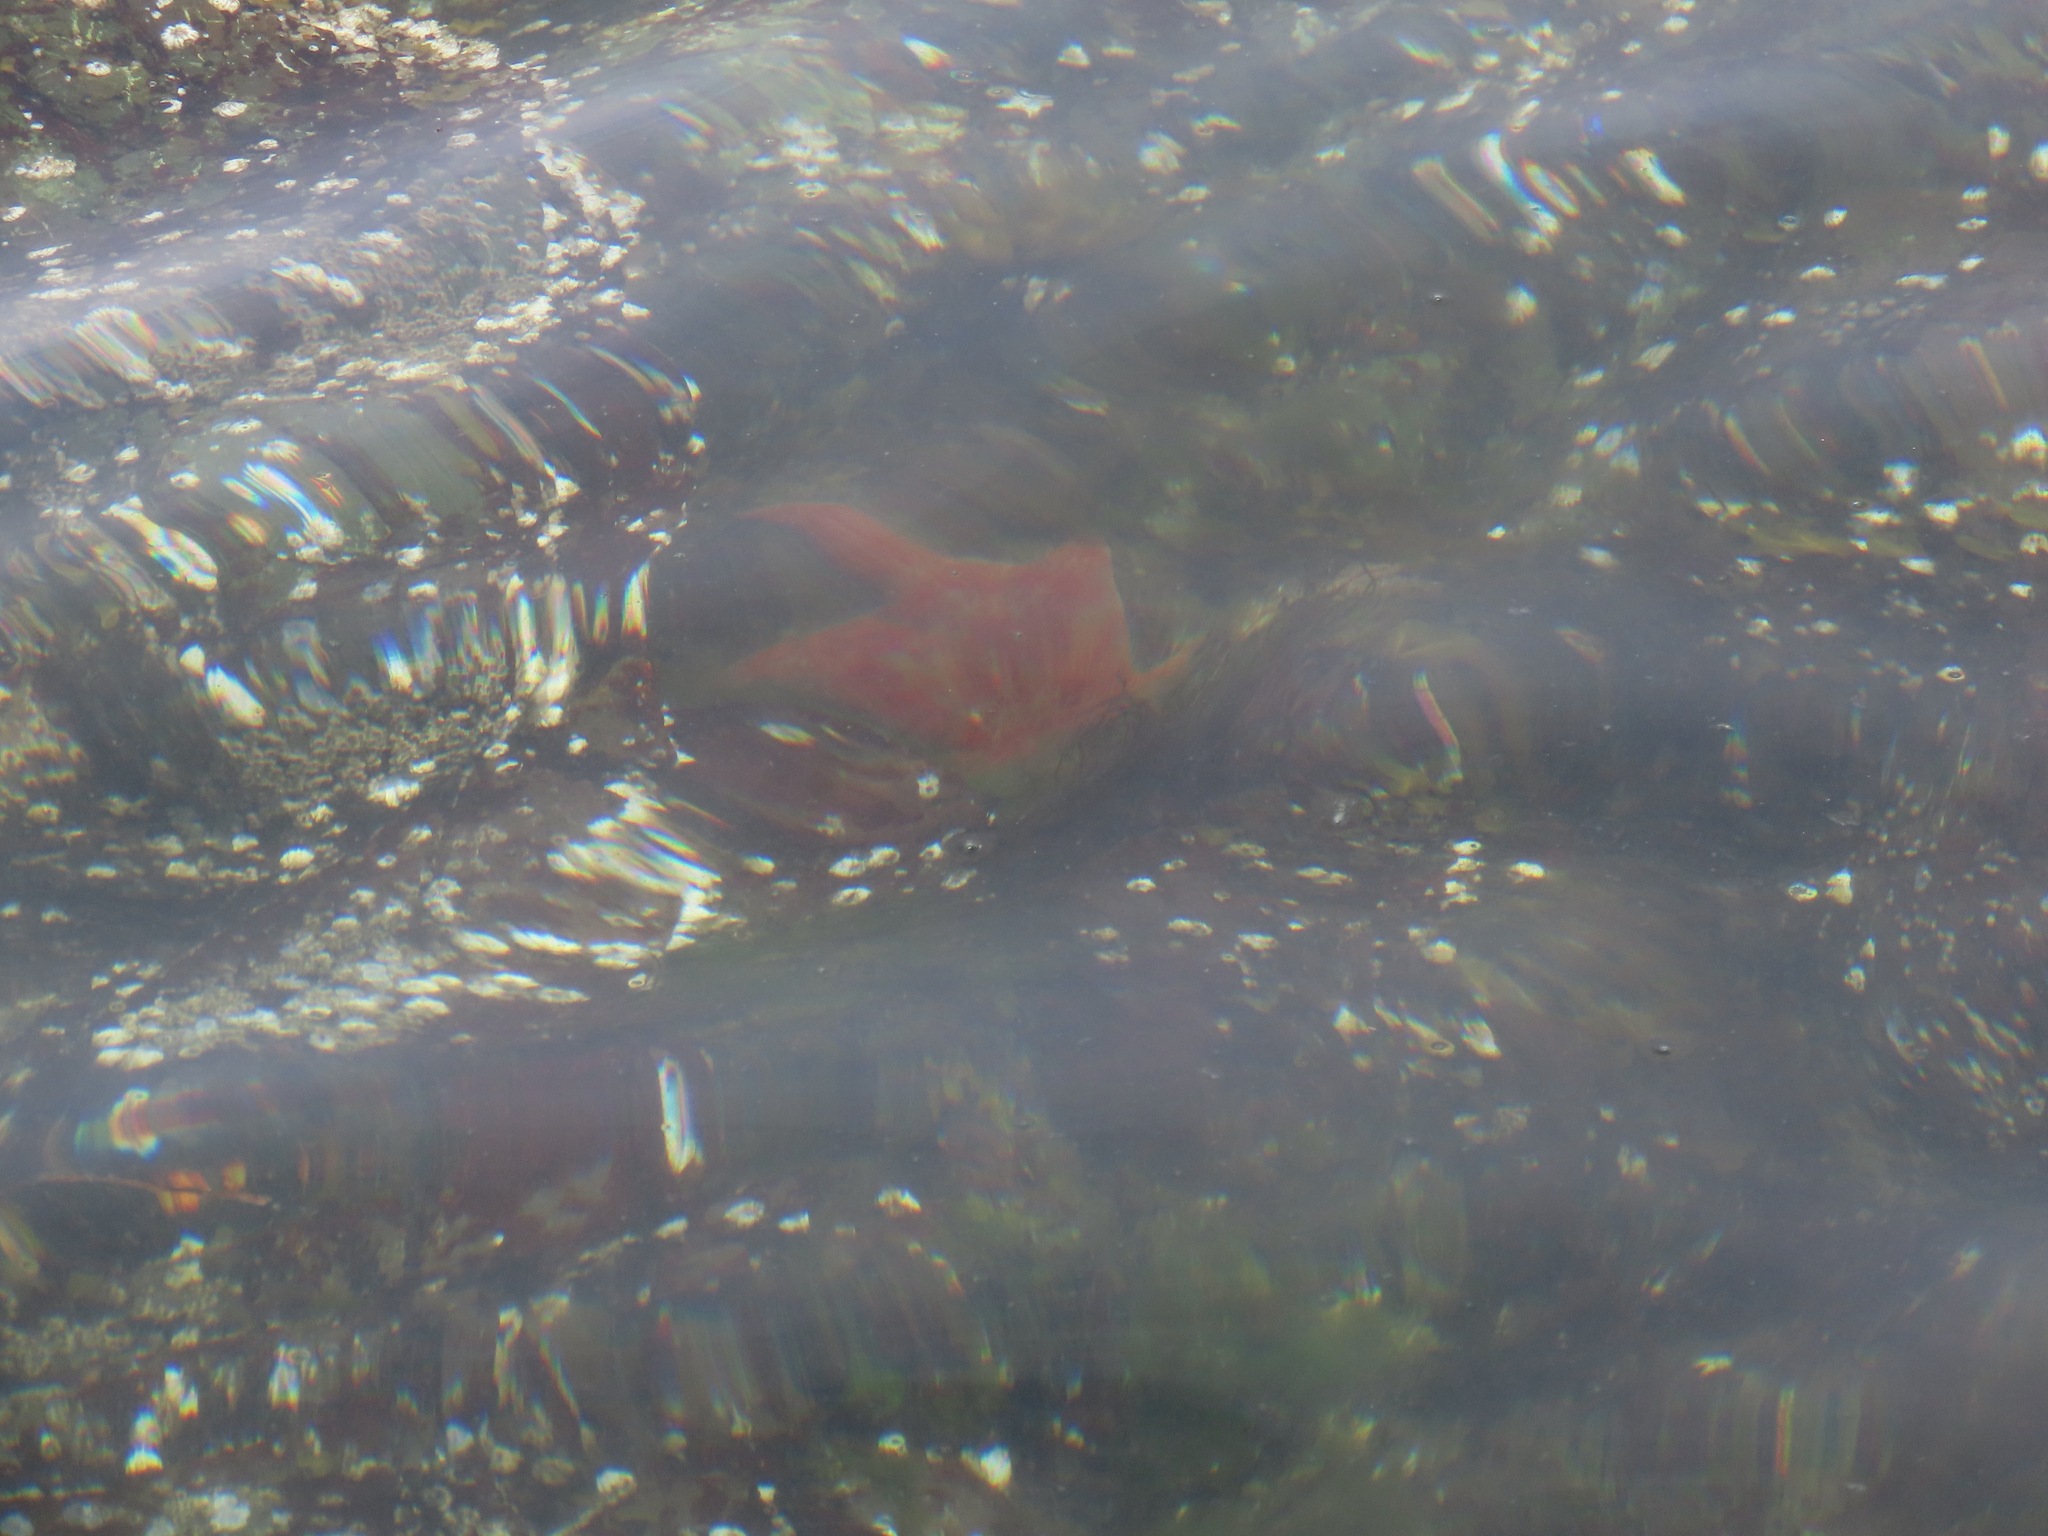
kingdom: Animalia
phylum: Echinodermata
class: Asteroidea
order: Valvatida
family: Asteropseidae
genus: Dermasterias
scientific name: Dermasterias imbricata
